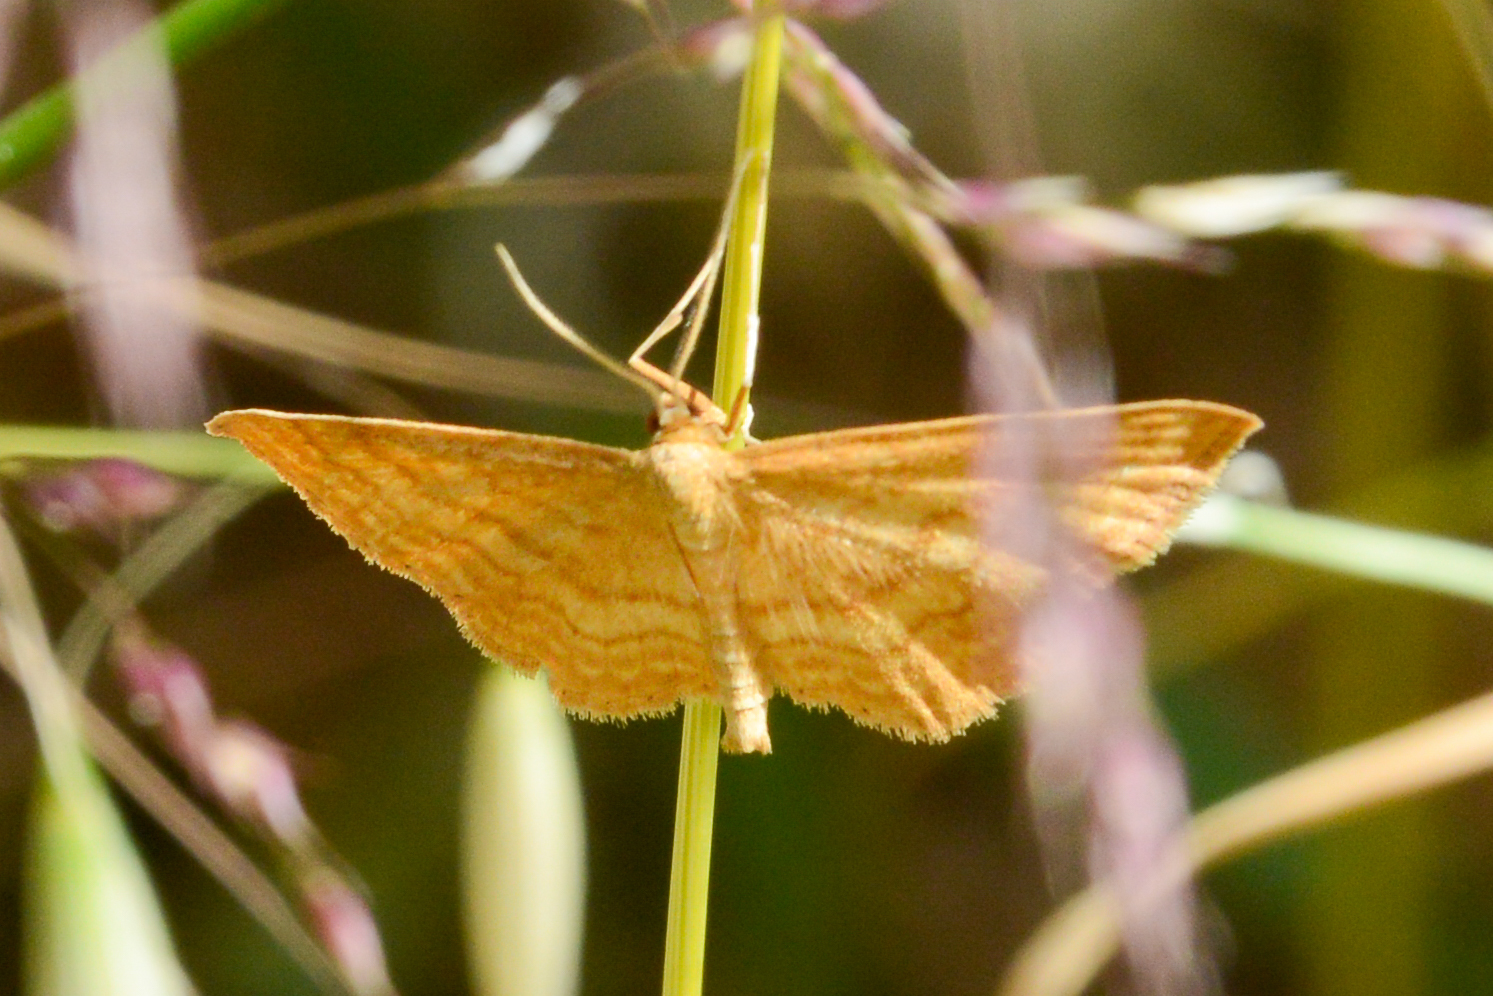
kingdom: Animalia
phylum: Arthropoda
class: Insecta
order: Lepidoptera
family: Geometridae
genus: Idaea
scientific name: Idaea ochrata
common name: Bright wave
